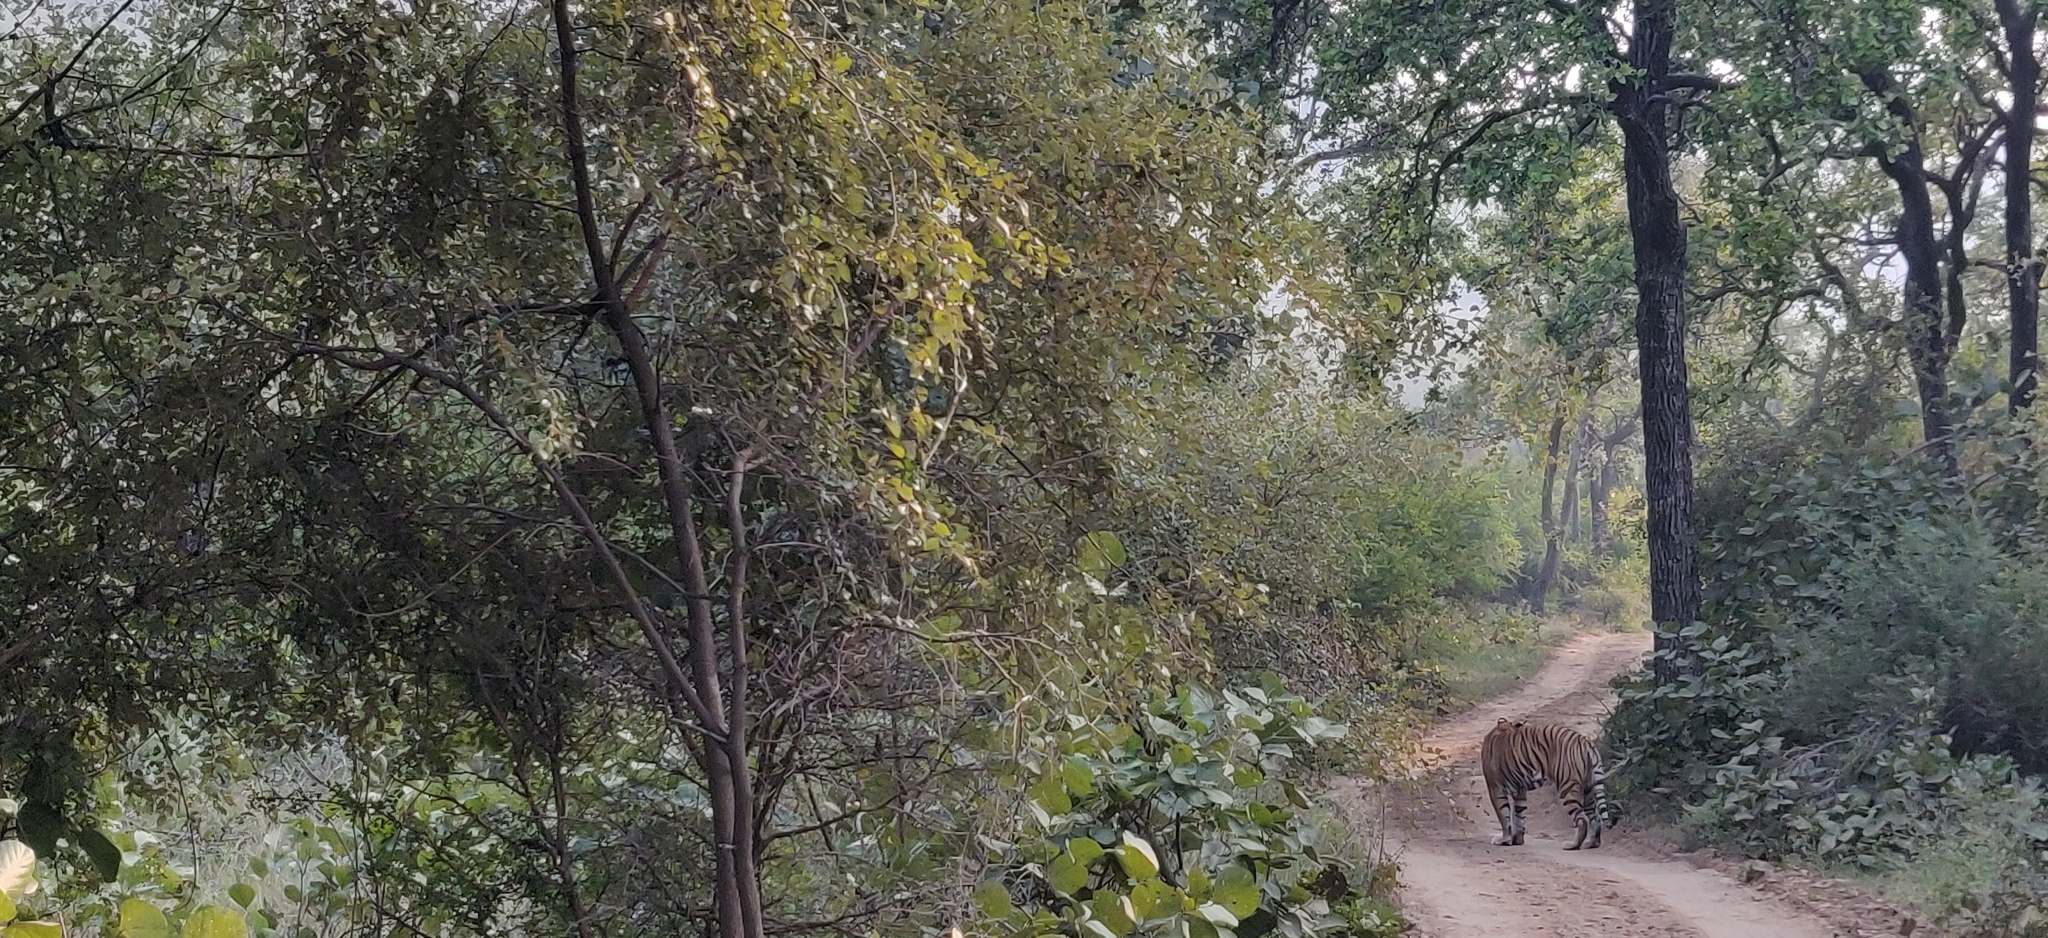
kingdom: Animalia
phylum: Chordata
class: Mammalia
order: Carnivora
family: Felidae
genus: Panthera
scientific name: Panthera tigris
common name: Tiger
